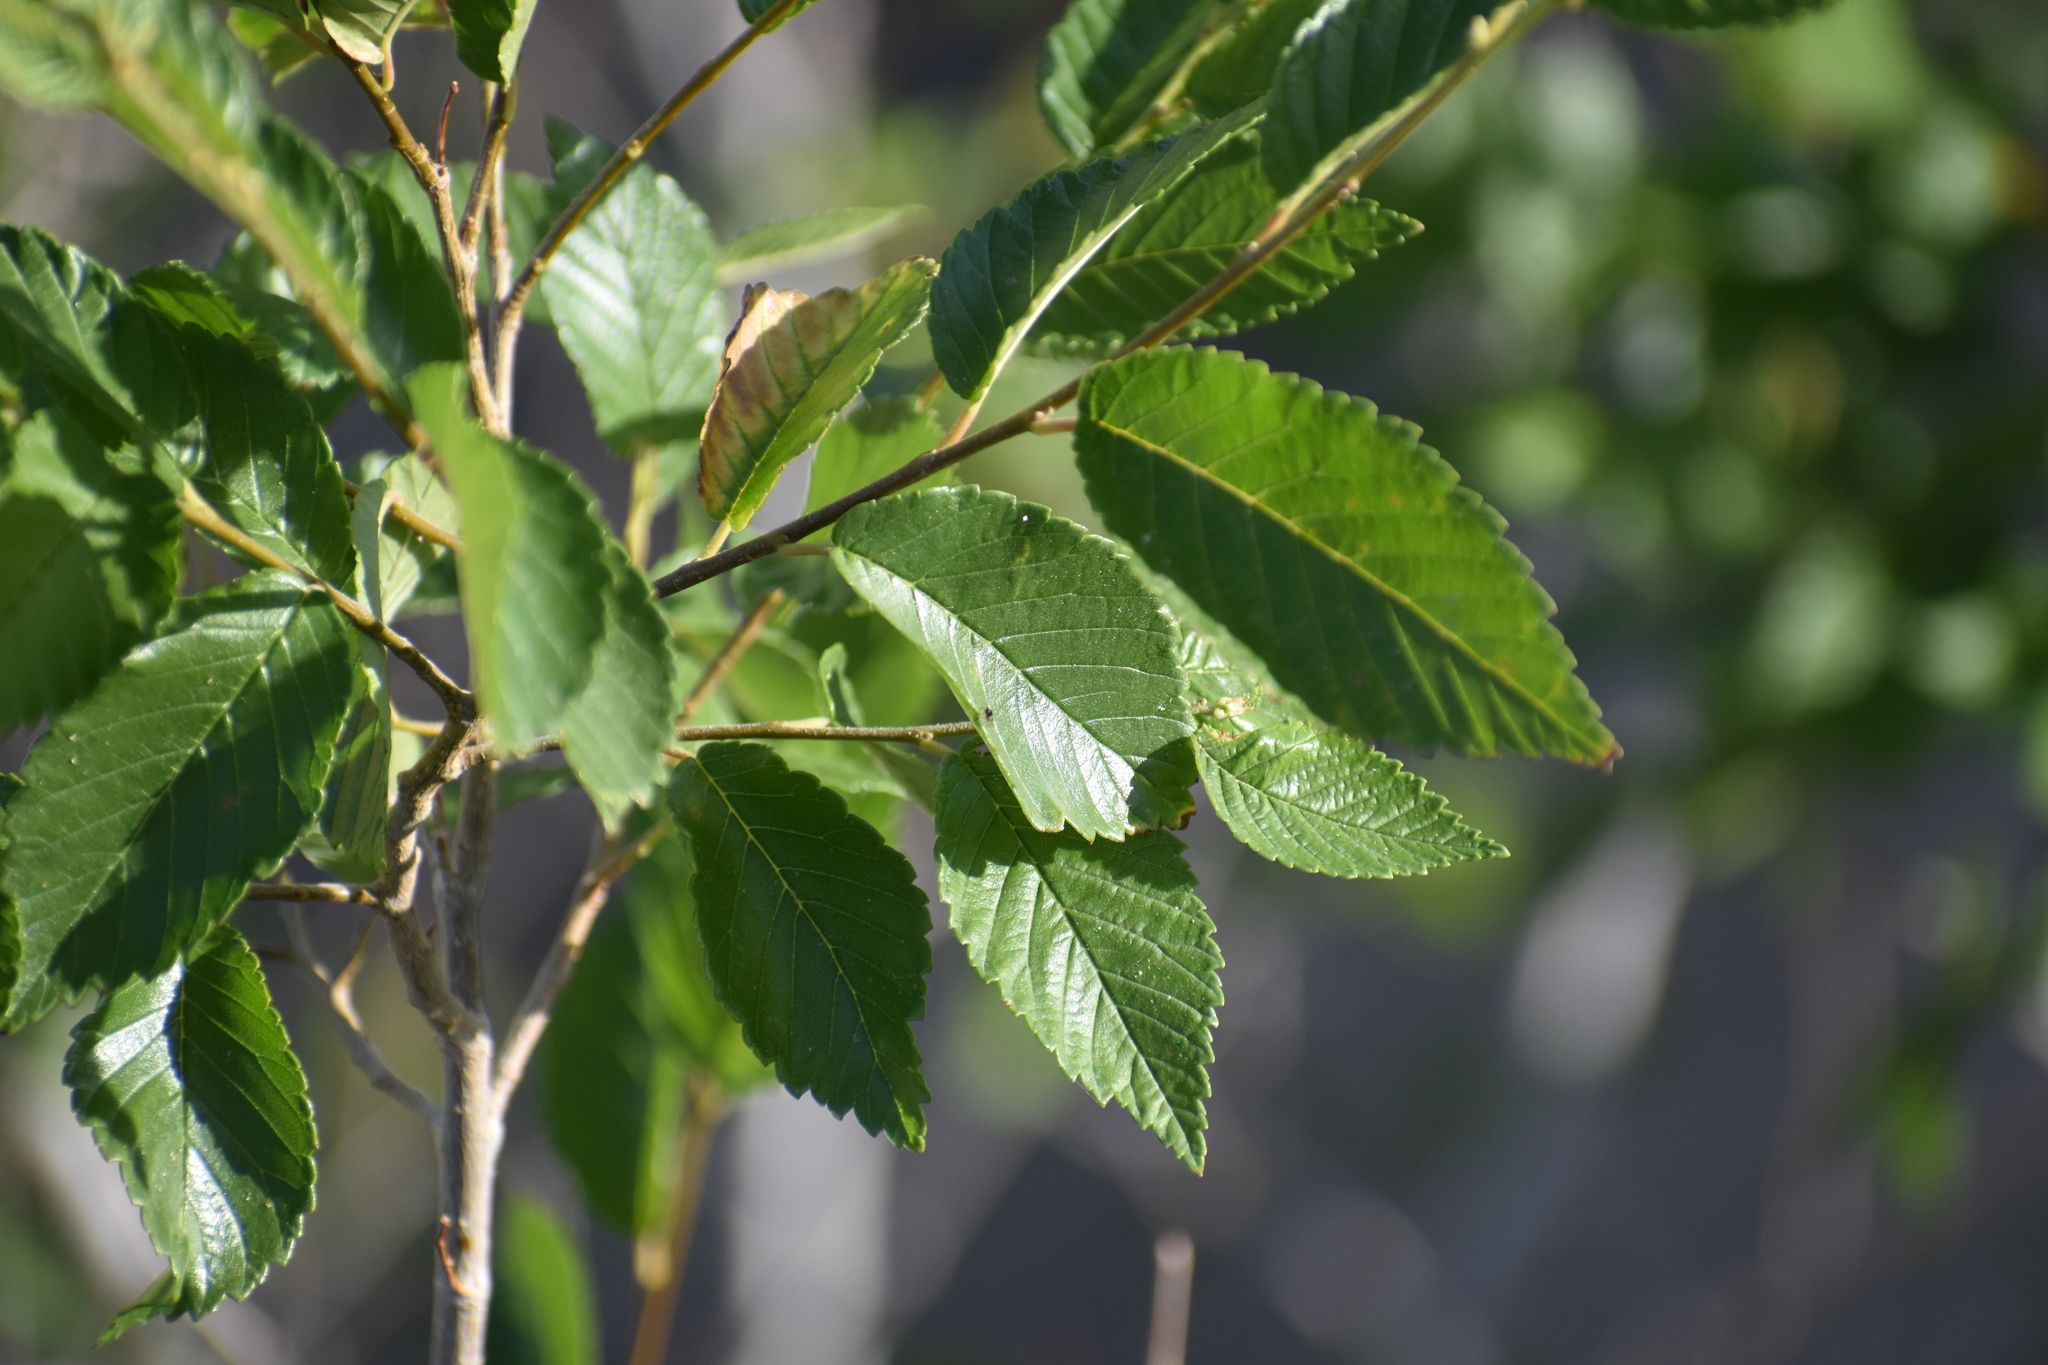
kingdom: Plantae
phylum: Tracheophyta
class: Magnoliopsida
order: Rosales
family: Ulmaceae
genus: Ulmus
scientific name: Ulmus pumila
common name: Siberian elm
